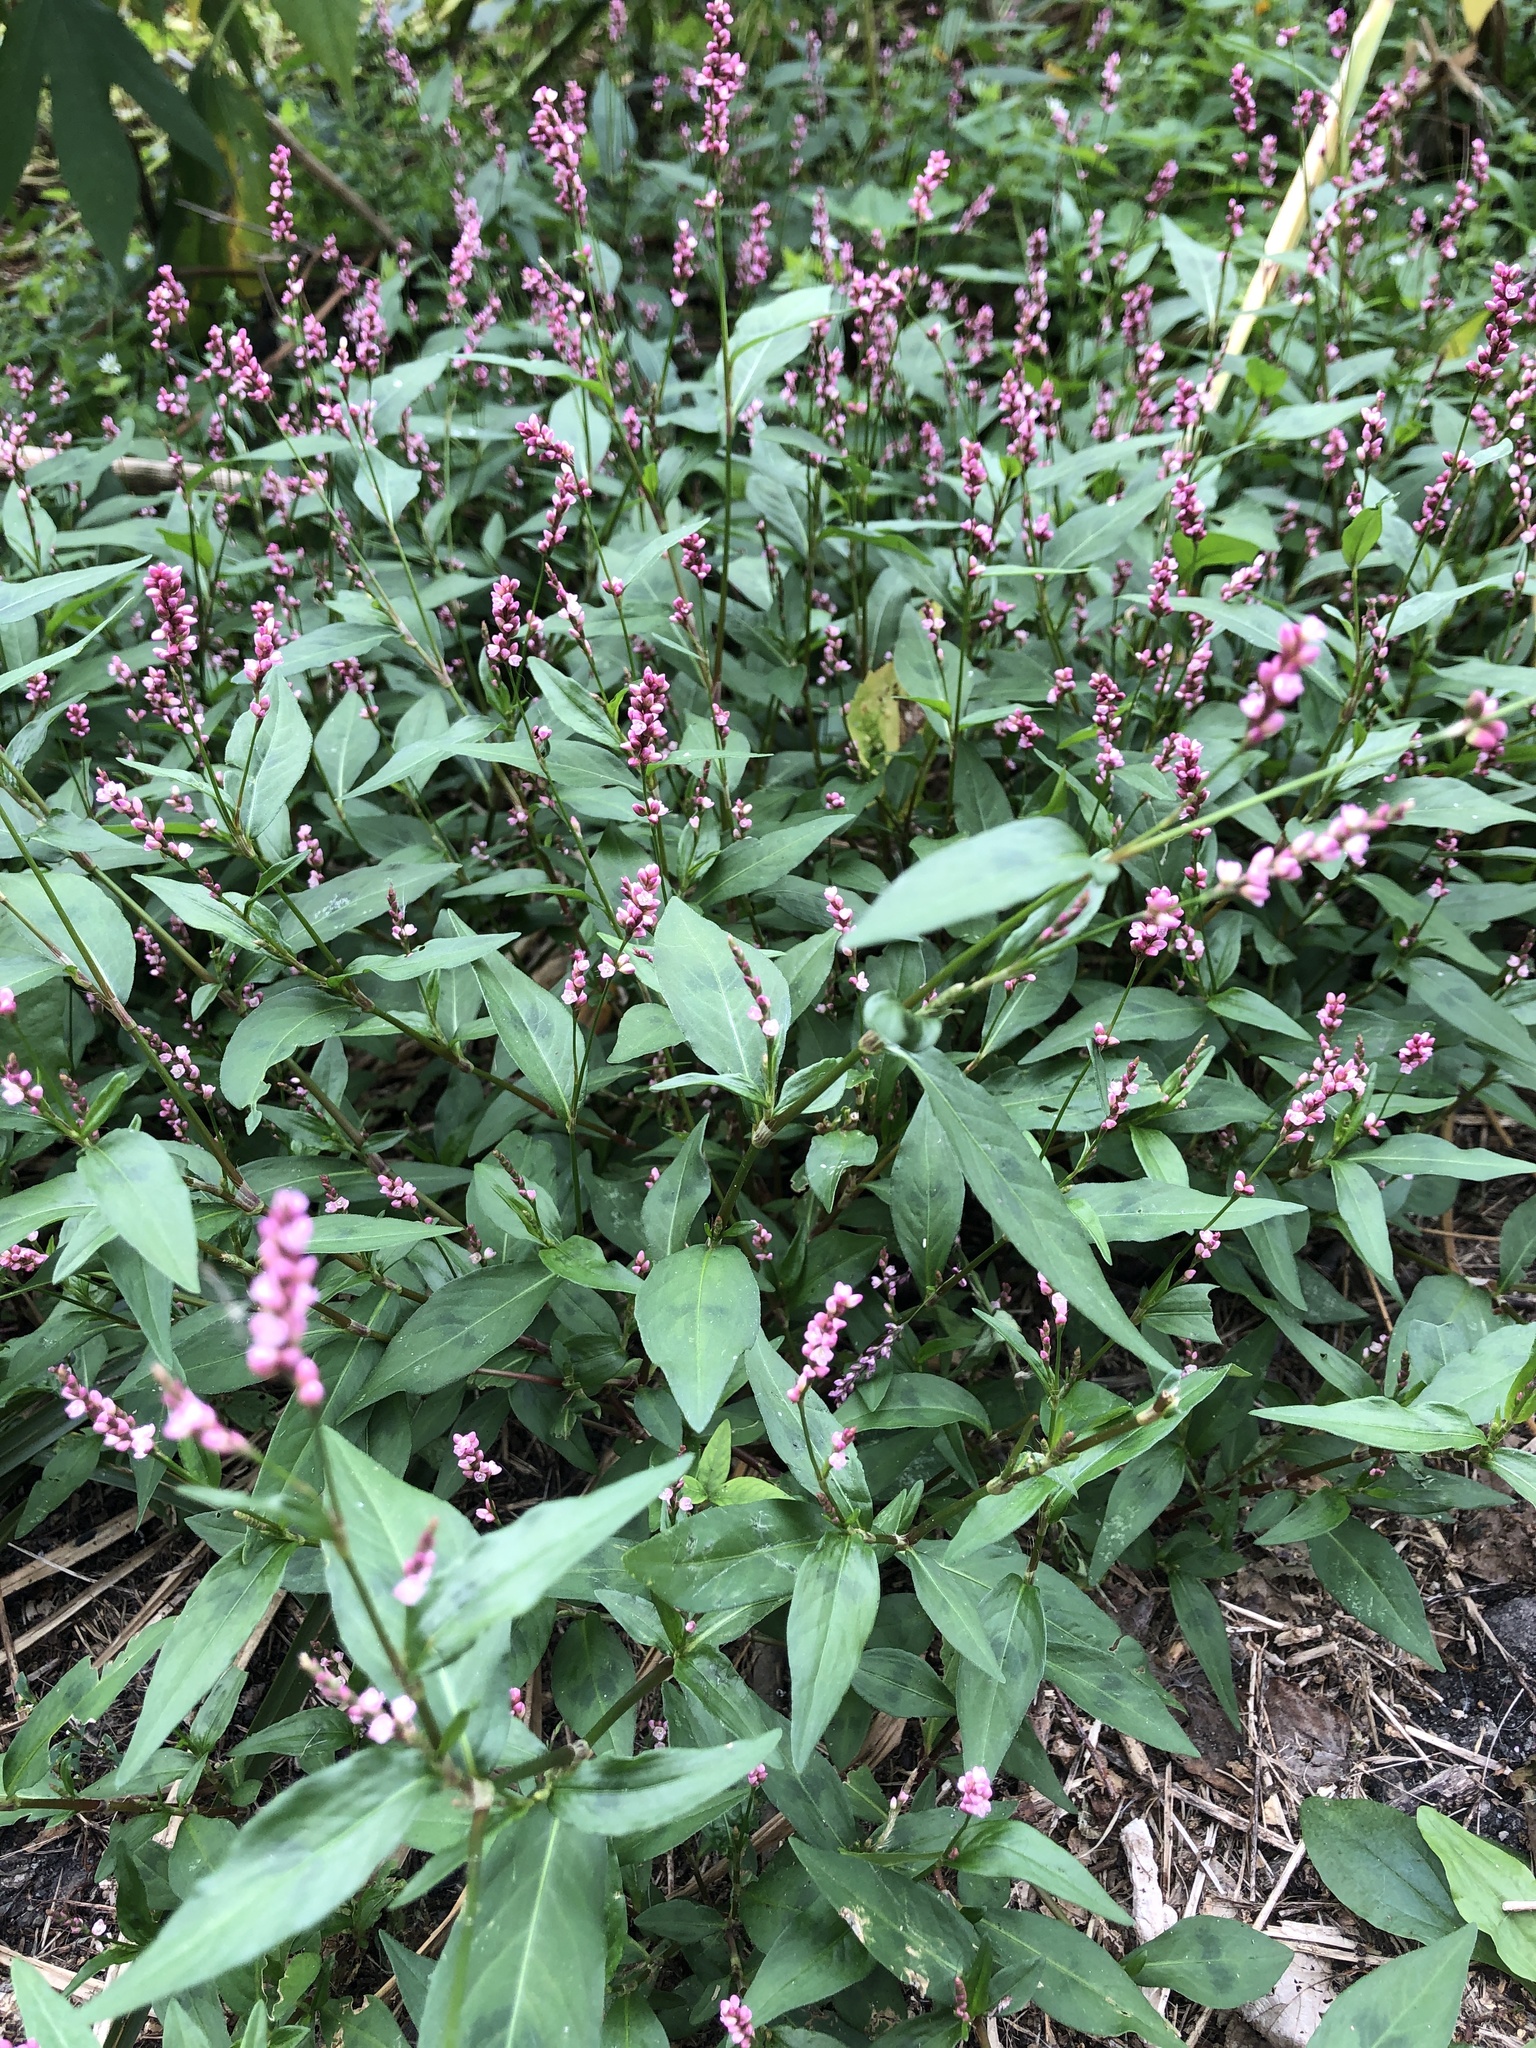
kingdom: Plantae
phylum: Tracheophyta
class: Magnoliopsida
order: Caryophyllales
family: Polygonaceae
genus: Persicaria
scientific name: Persicaria maculosa
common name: Redshank
